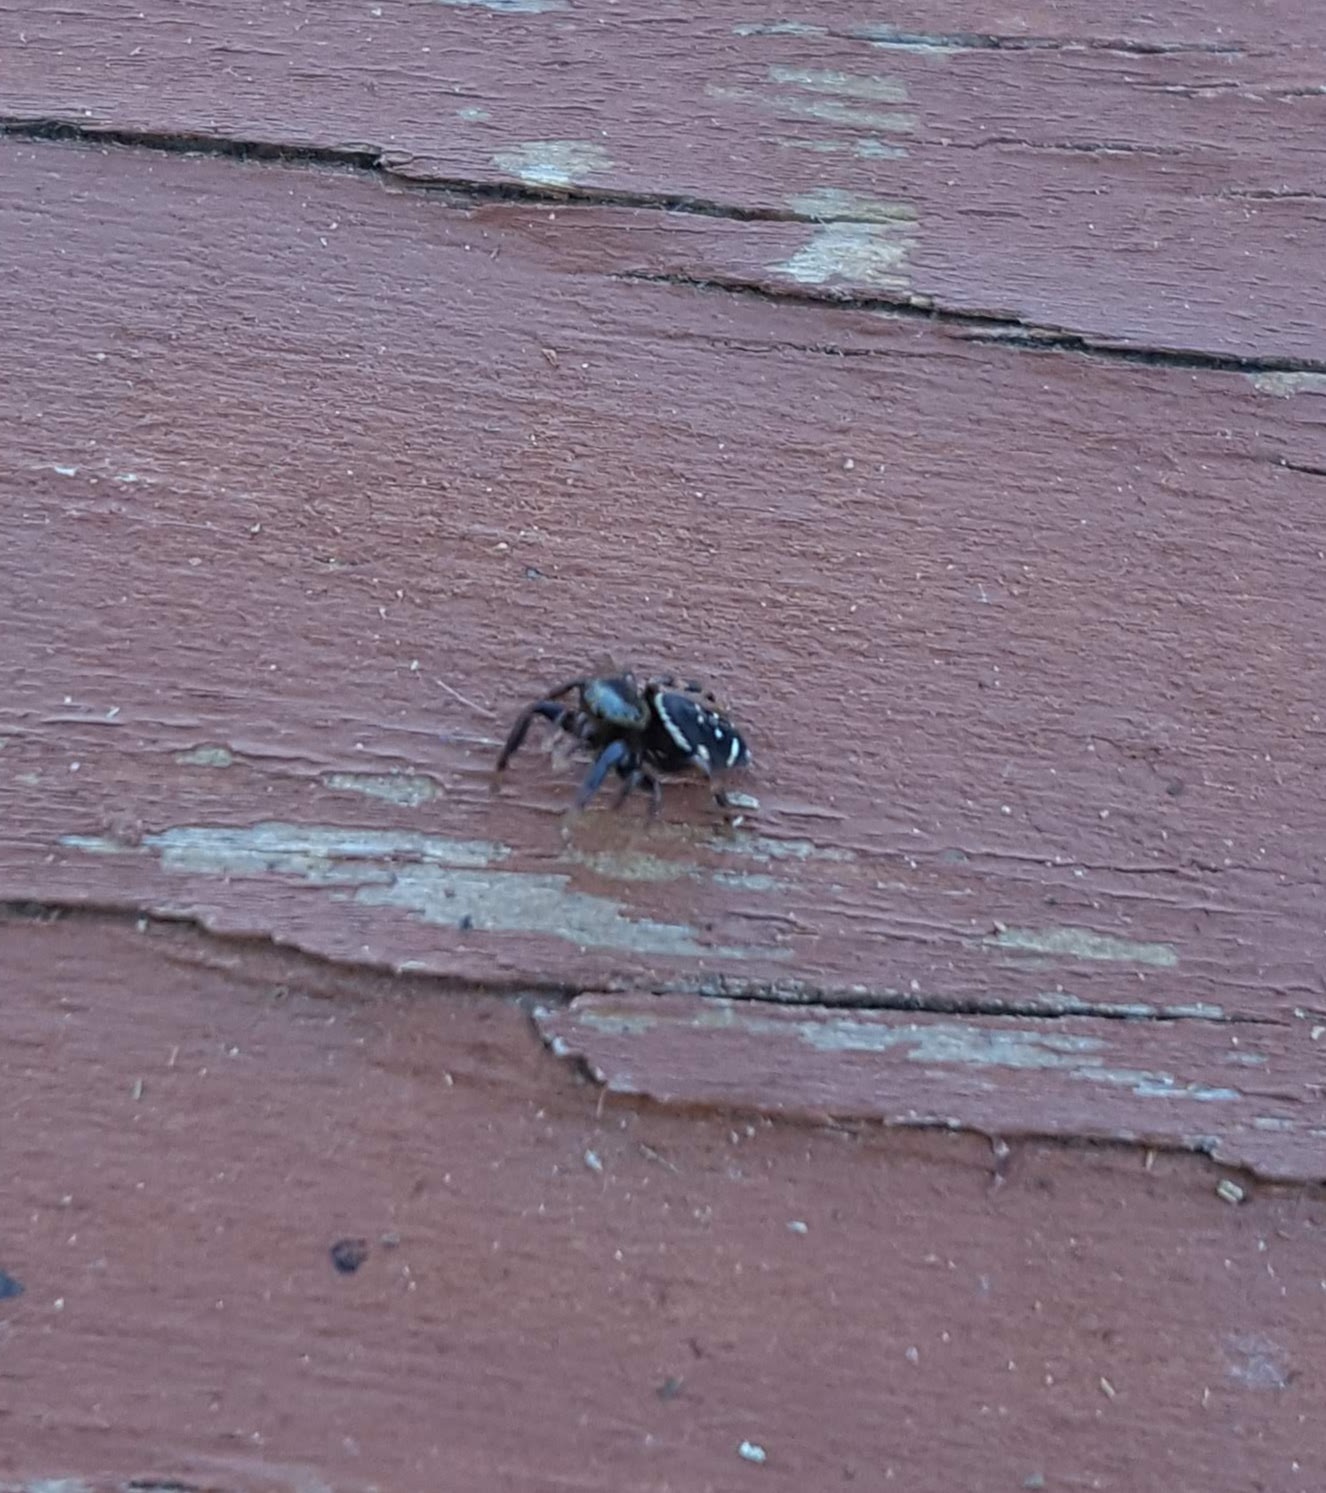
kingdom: Animalia
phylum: Arthropoda
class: Arachnida
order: Araneae
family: Salticidae
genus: Paraphidippus
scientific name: Paraphidippus aurantius
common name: Jumping spiders
